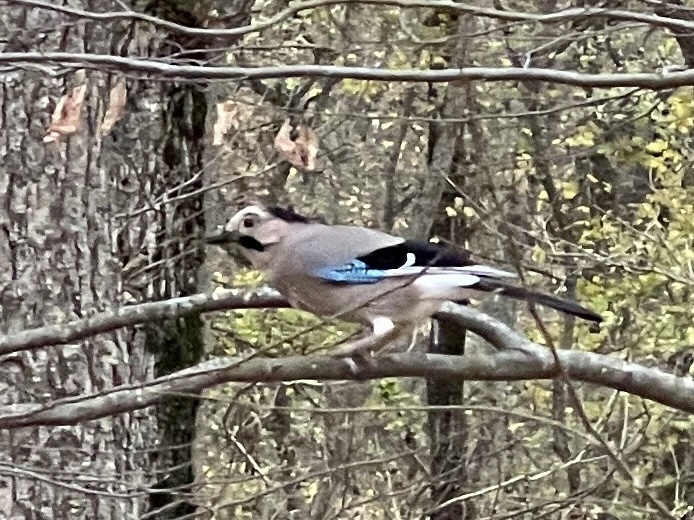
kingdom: Animalia
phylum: Chordata
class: Aves
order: Passeriformes
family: Corvidae
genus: Garrulus
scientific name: Garrulus glandarius
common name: Eurasian jay
